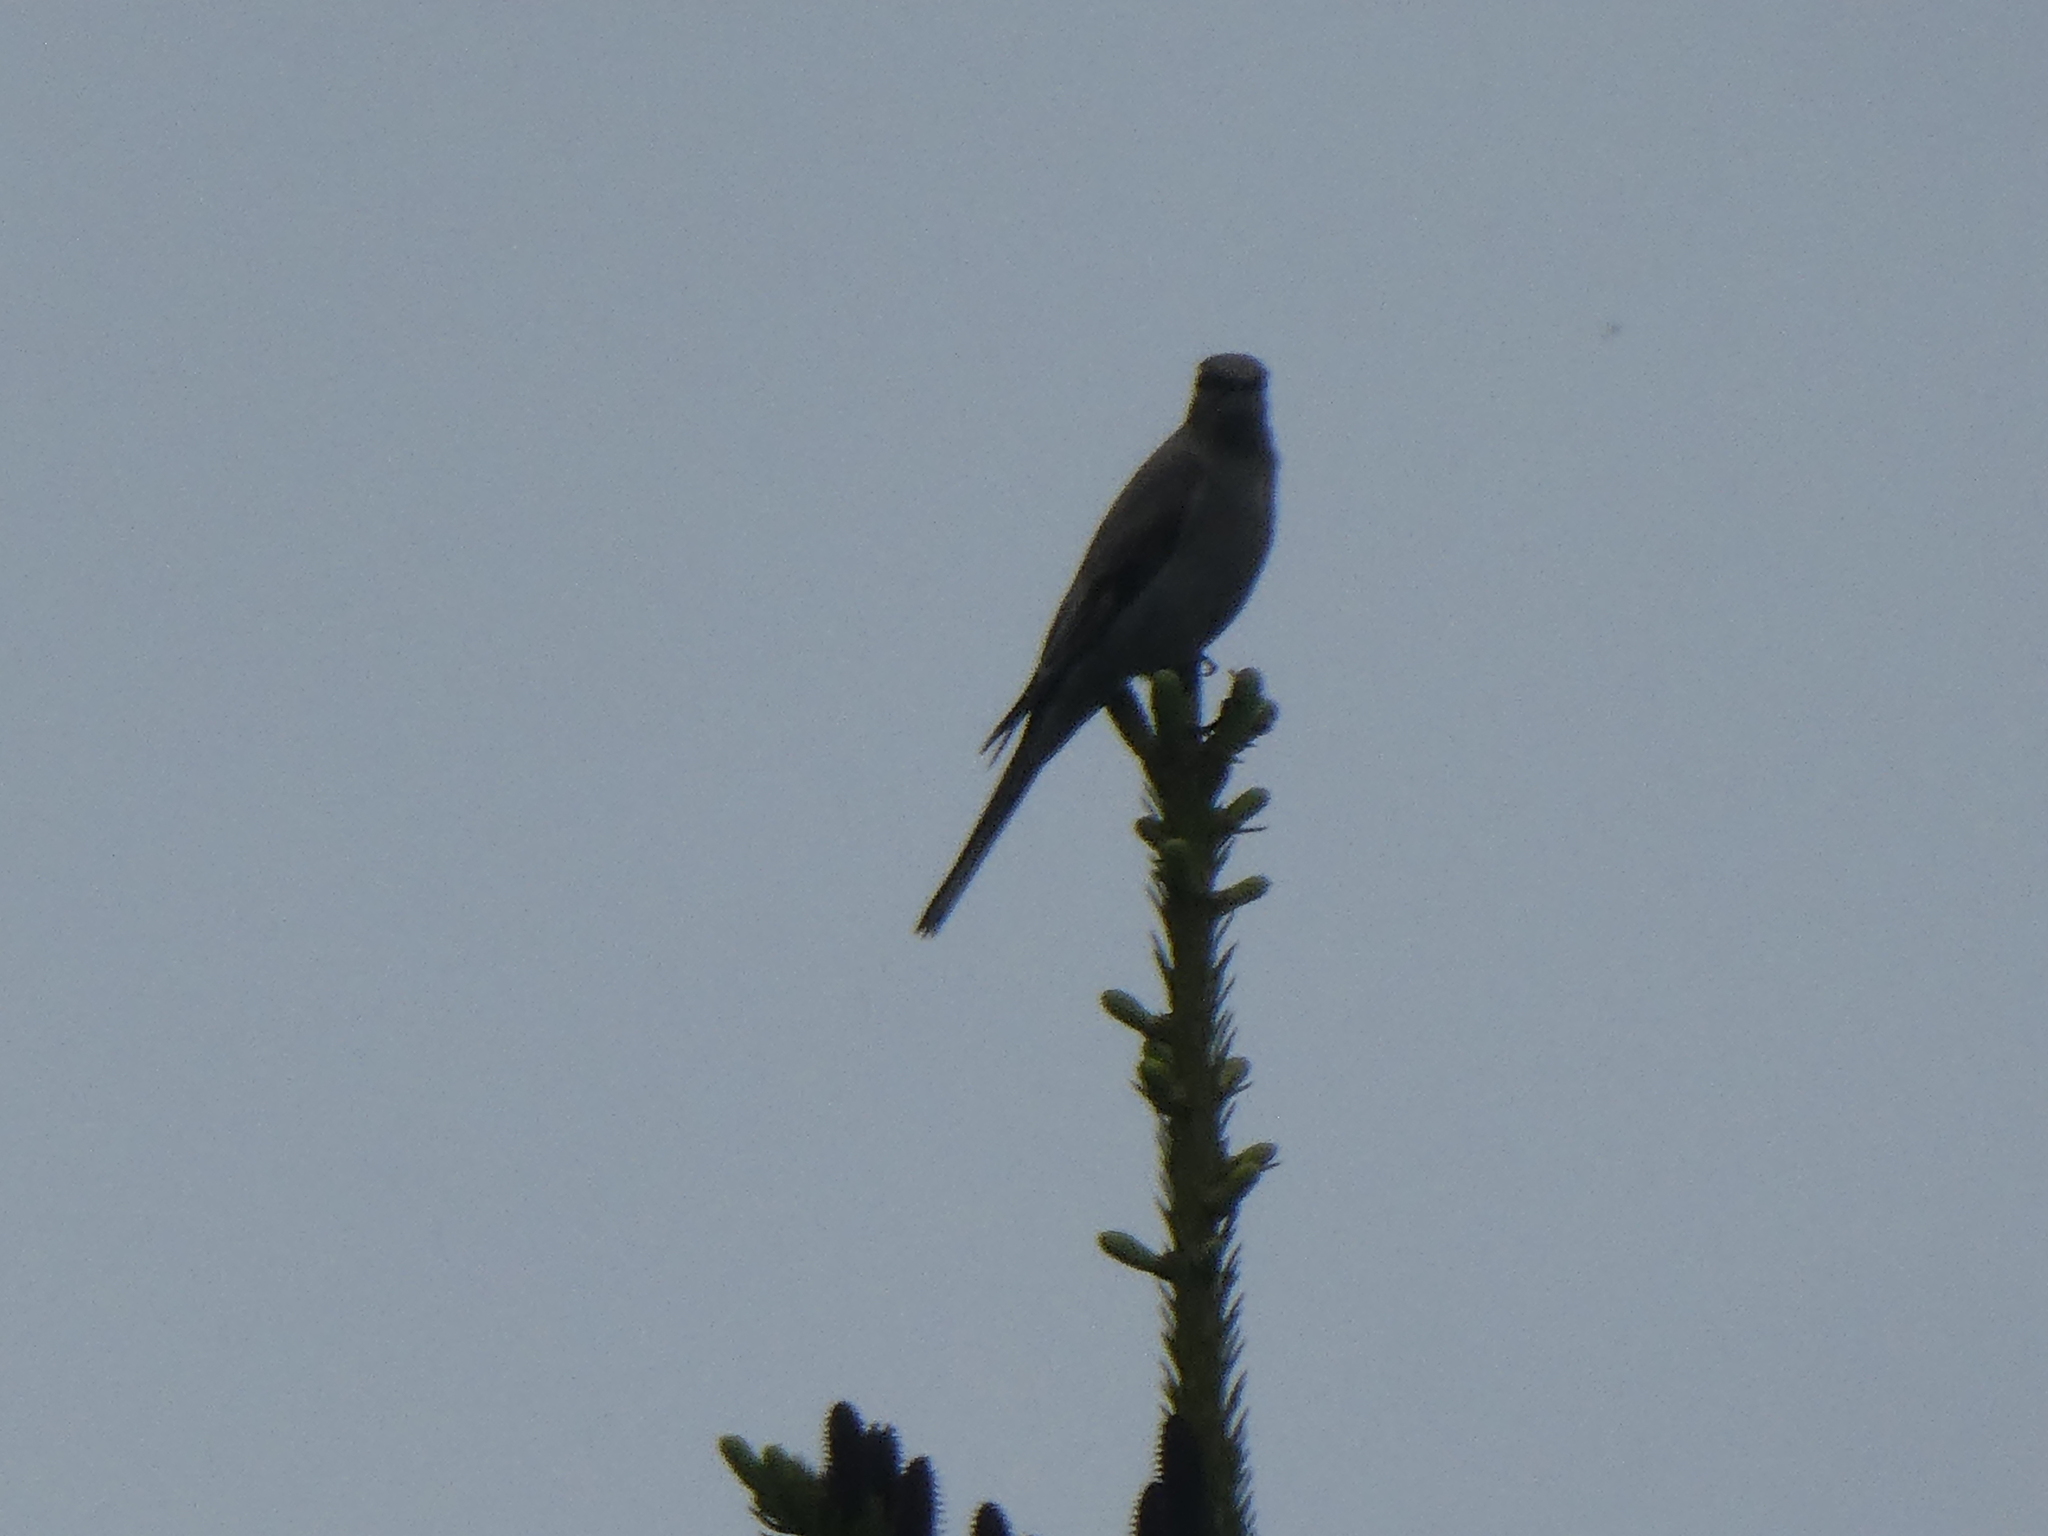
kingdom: Animalia
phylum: Chordata
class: Aves
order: Passeriformes
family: Corvidae
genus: Nucifraga
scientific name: Nucifraga columbiana
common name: Clark's nutcracker
